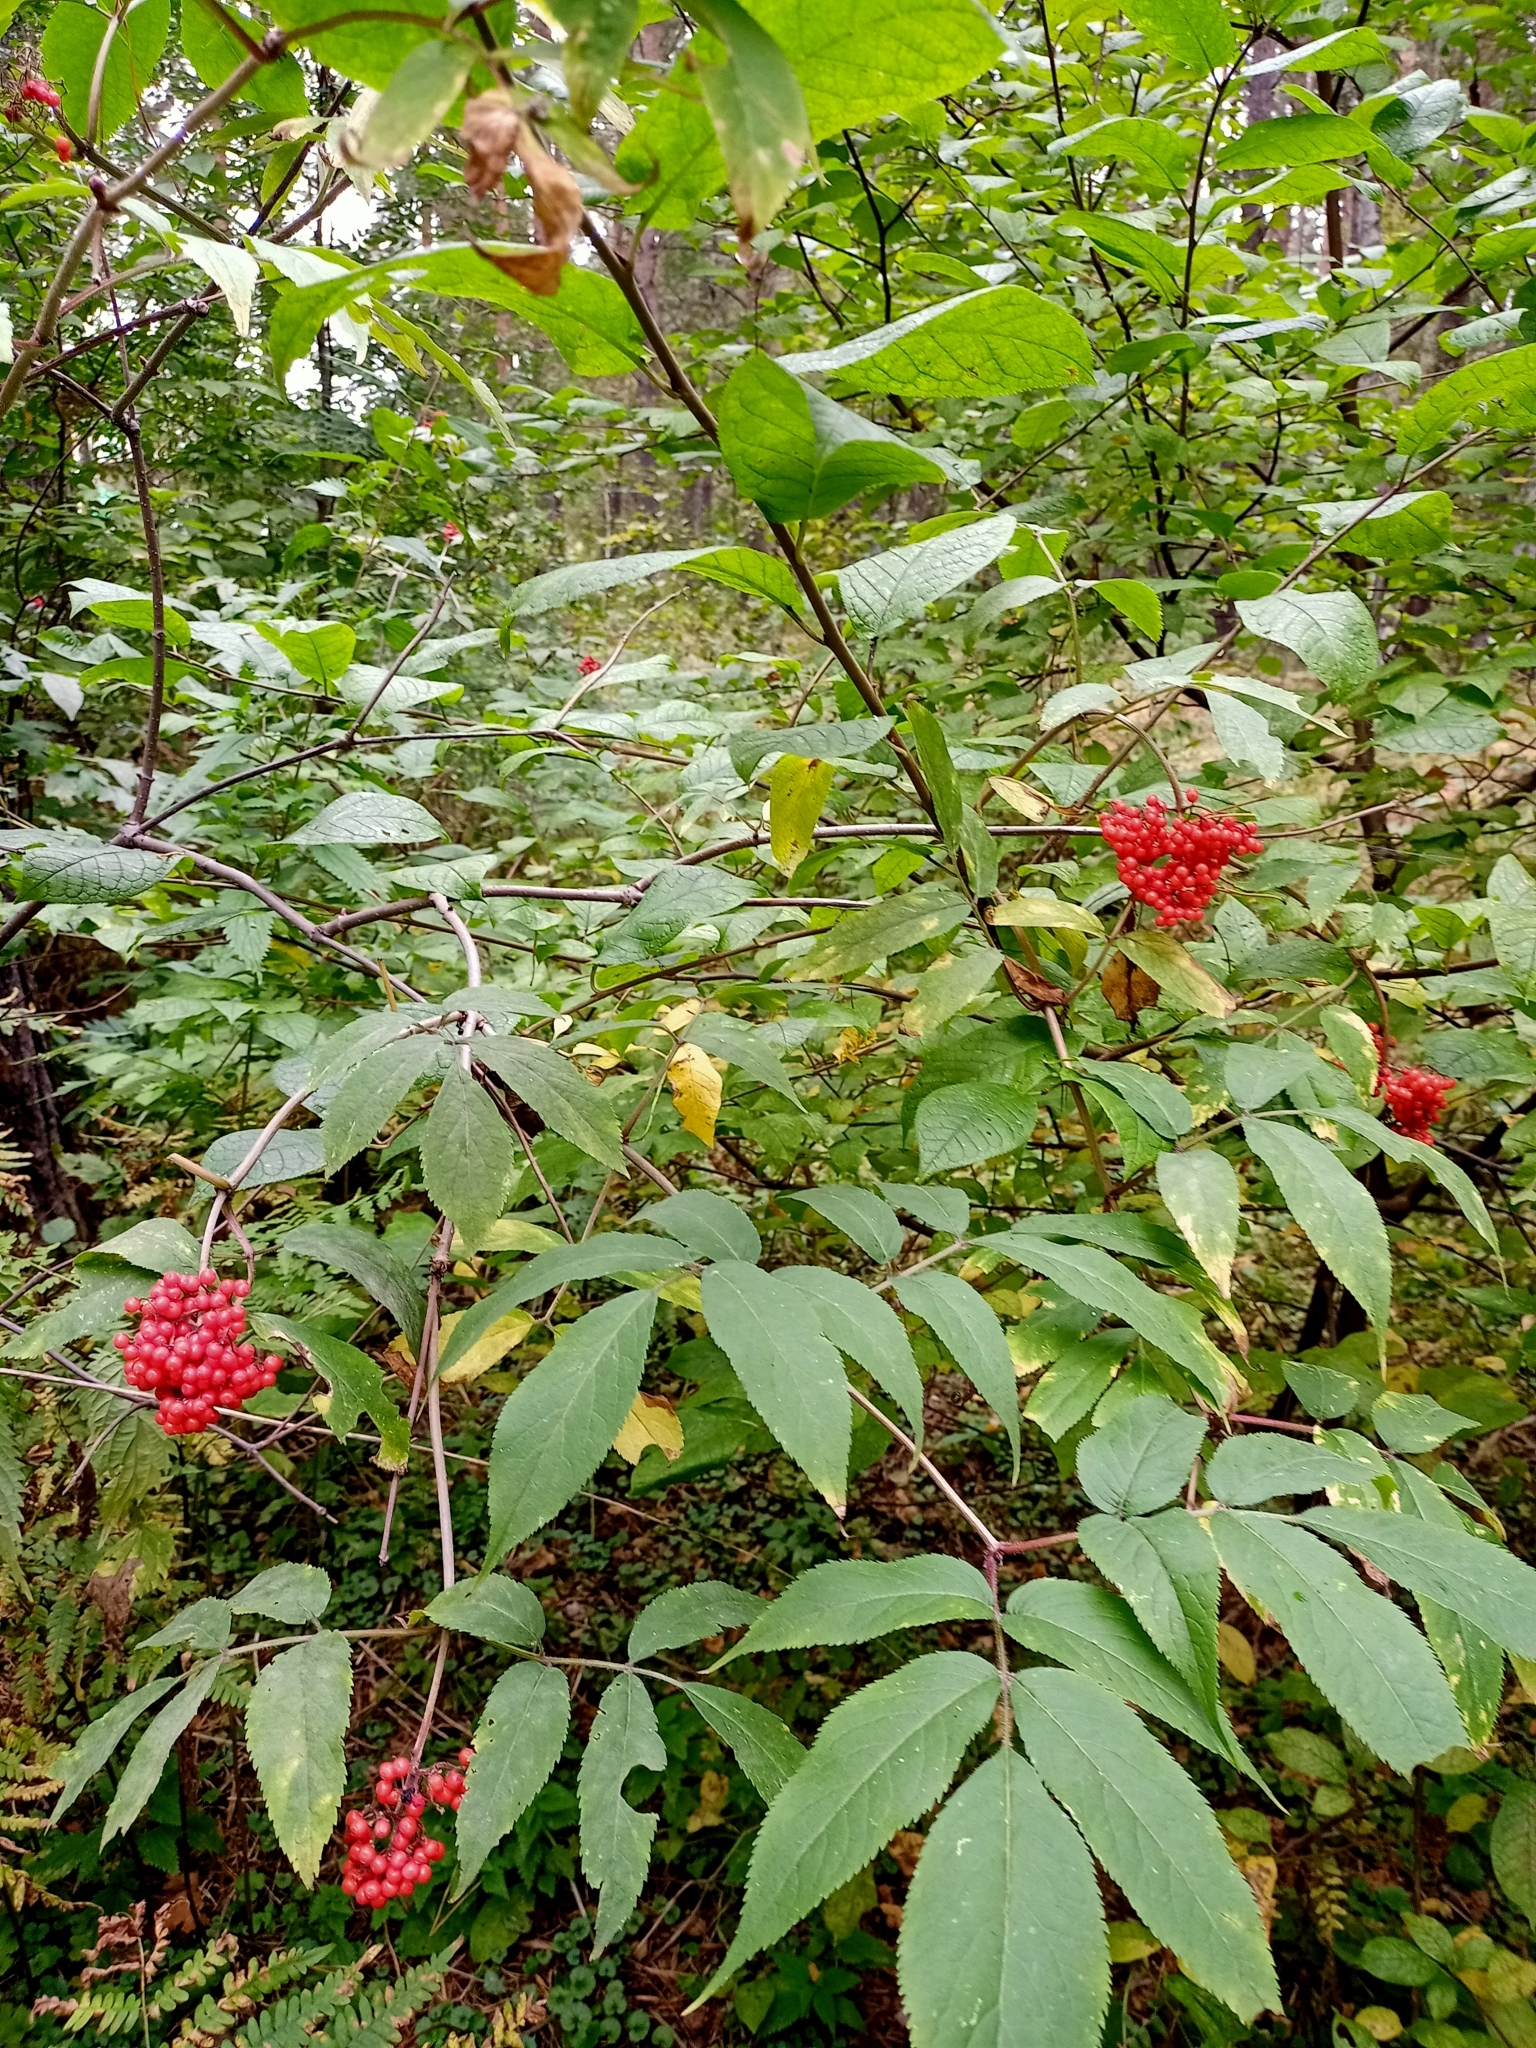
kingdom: Plantae
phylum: Tracheophyta
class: Magnoliopsida
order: Dipsacales
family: Viburnaceae
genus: Sambucus
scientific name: Sambucus sibirica
